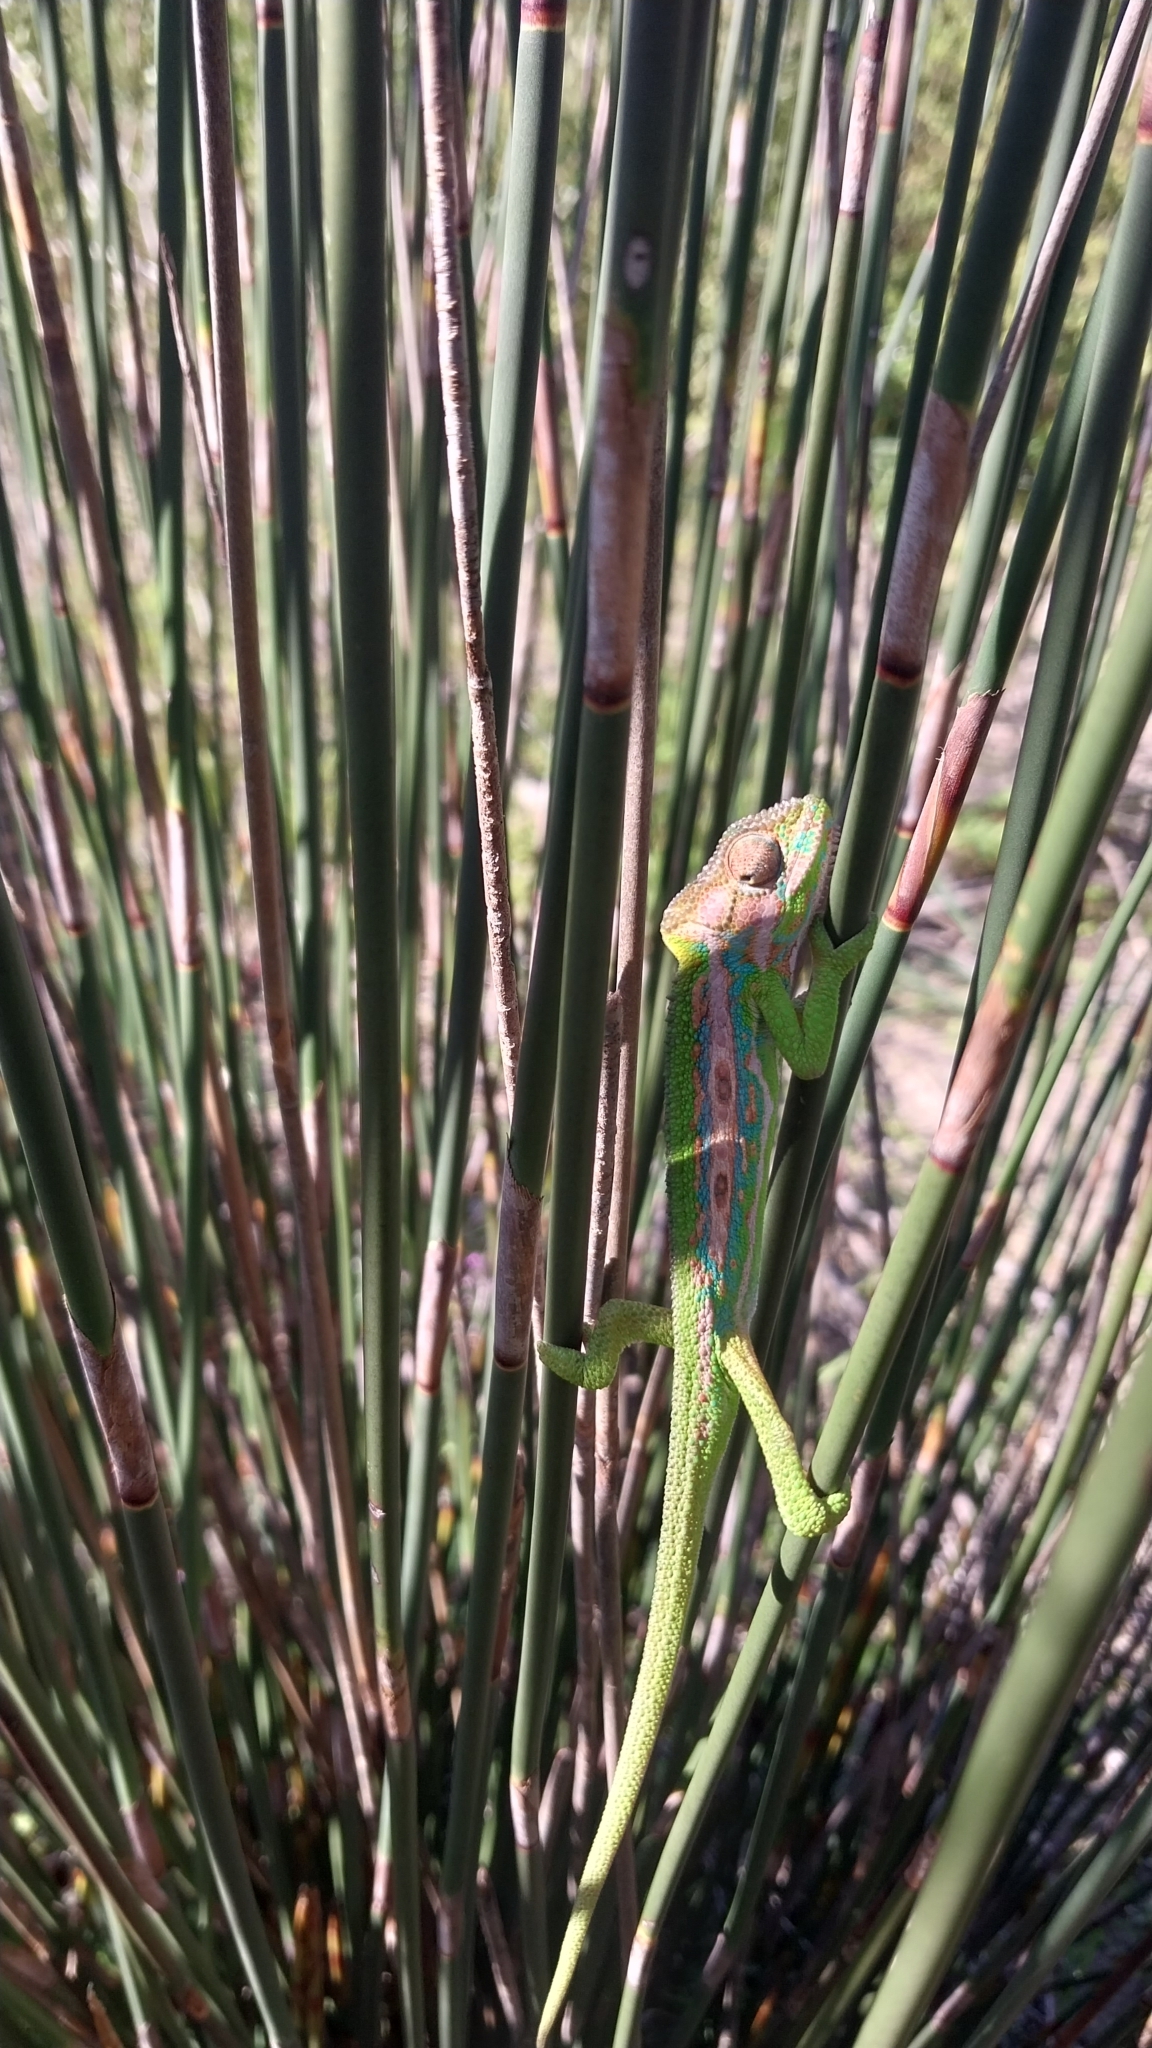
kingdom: Animalia
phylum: Chordata
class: Squamata
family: Chamaeleonidae
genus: Bradypodion
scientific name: Bradypodion pumilum
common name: Cape dwarf chameleon
